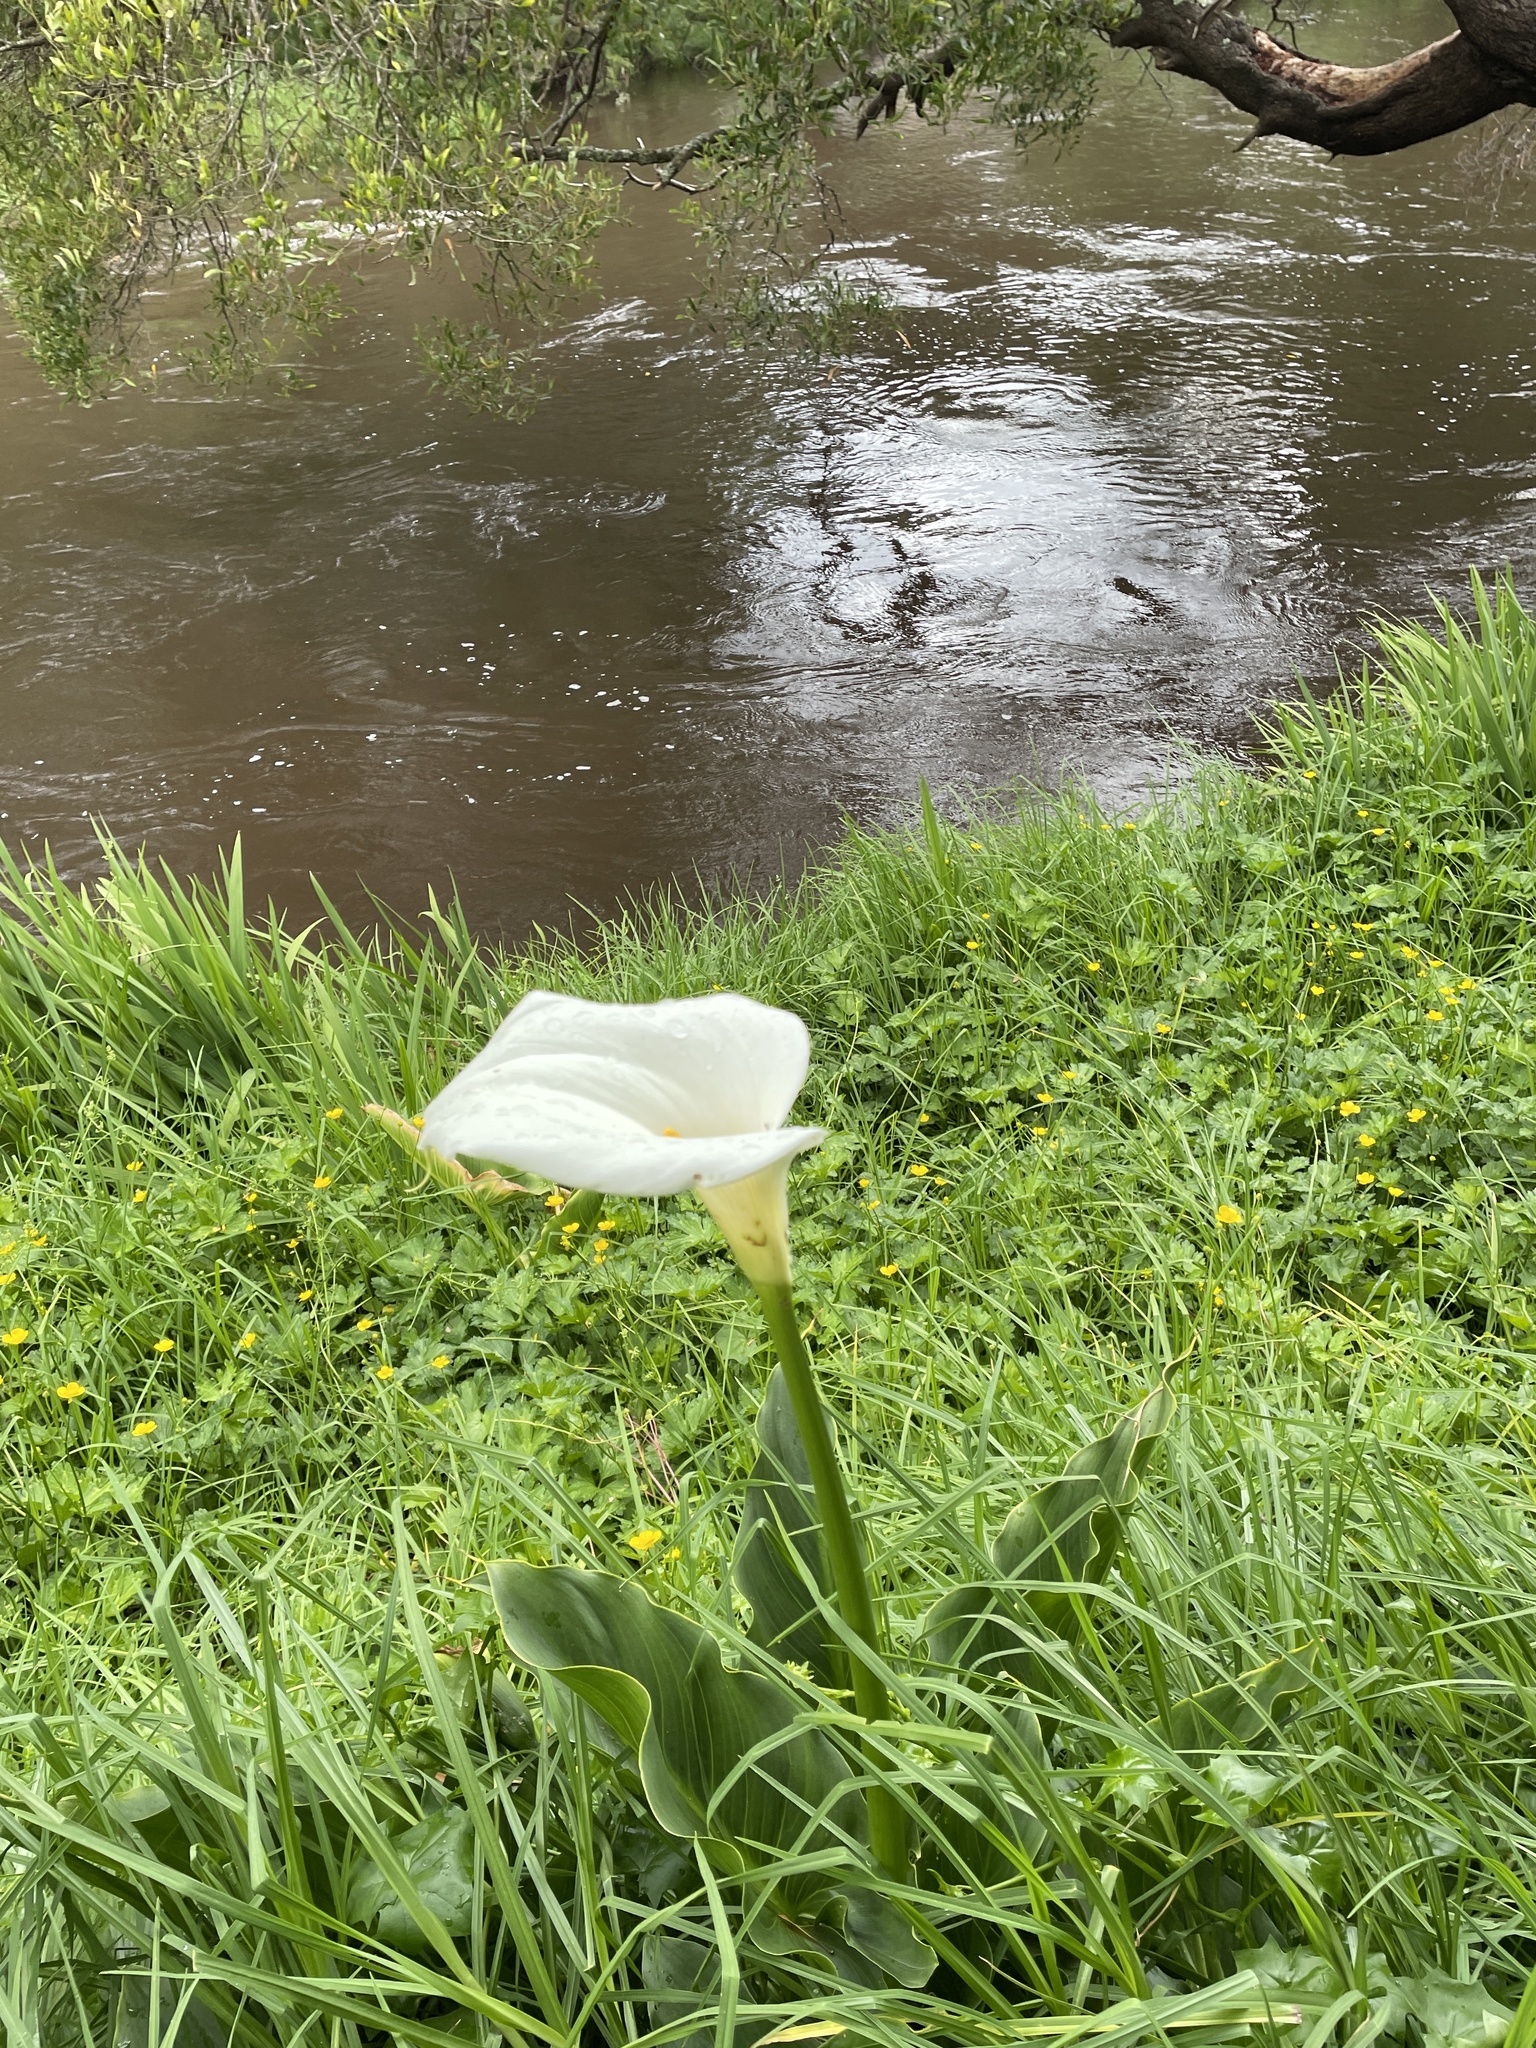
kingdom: Plantae
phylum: Tracheophyta
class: Liliopsida
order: Alismatales
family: Araceae
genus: Zantedeschia
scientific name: Zantedeschia aethiopica
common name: Altar-lily
